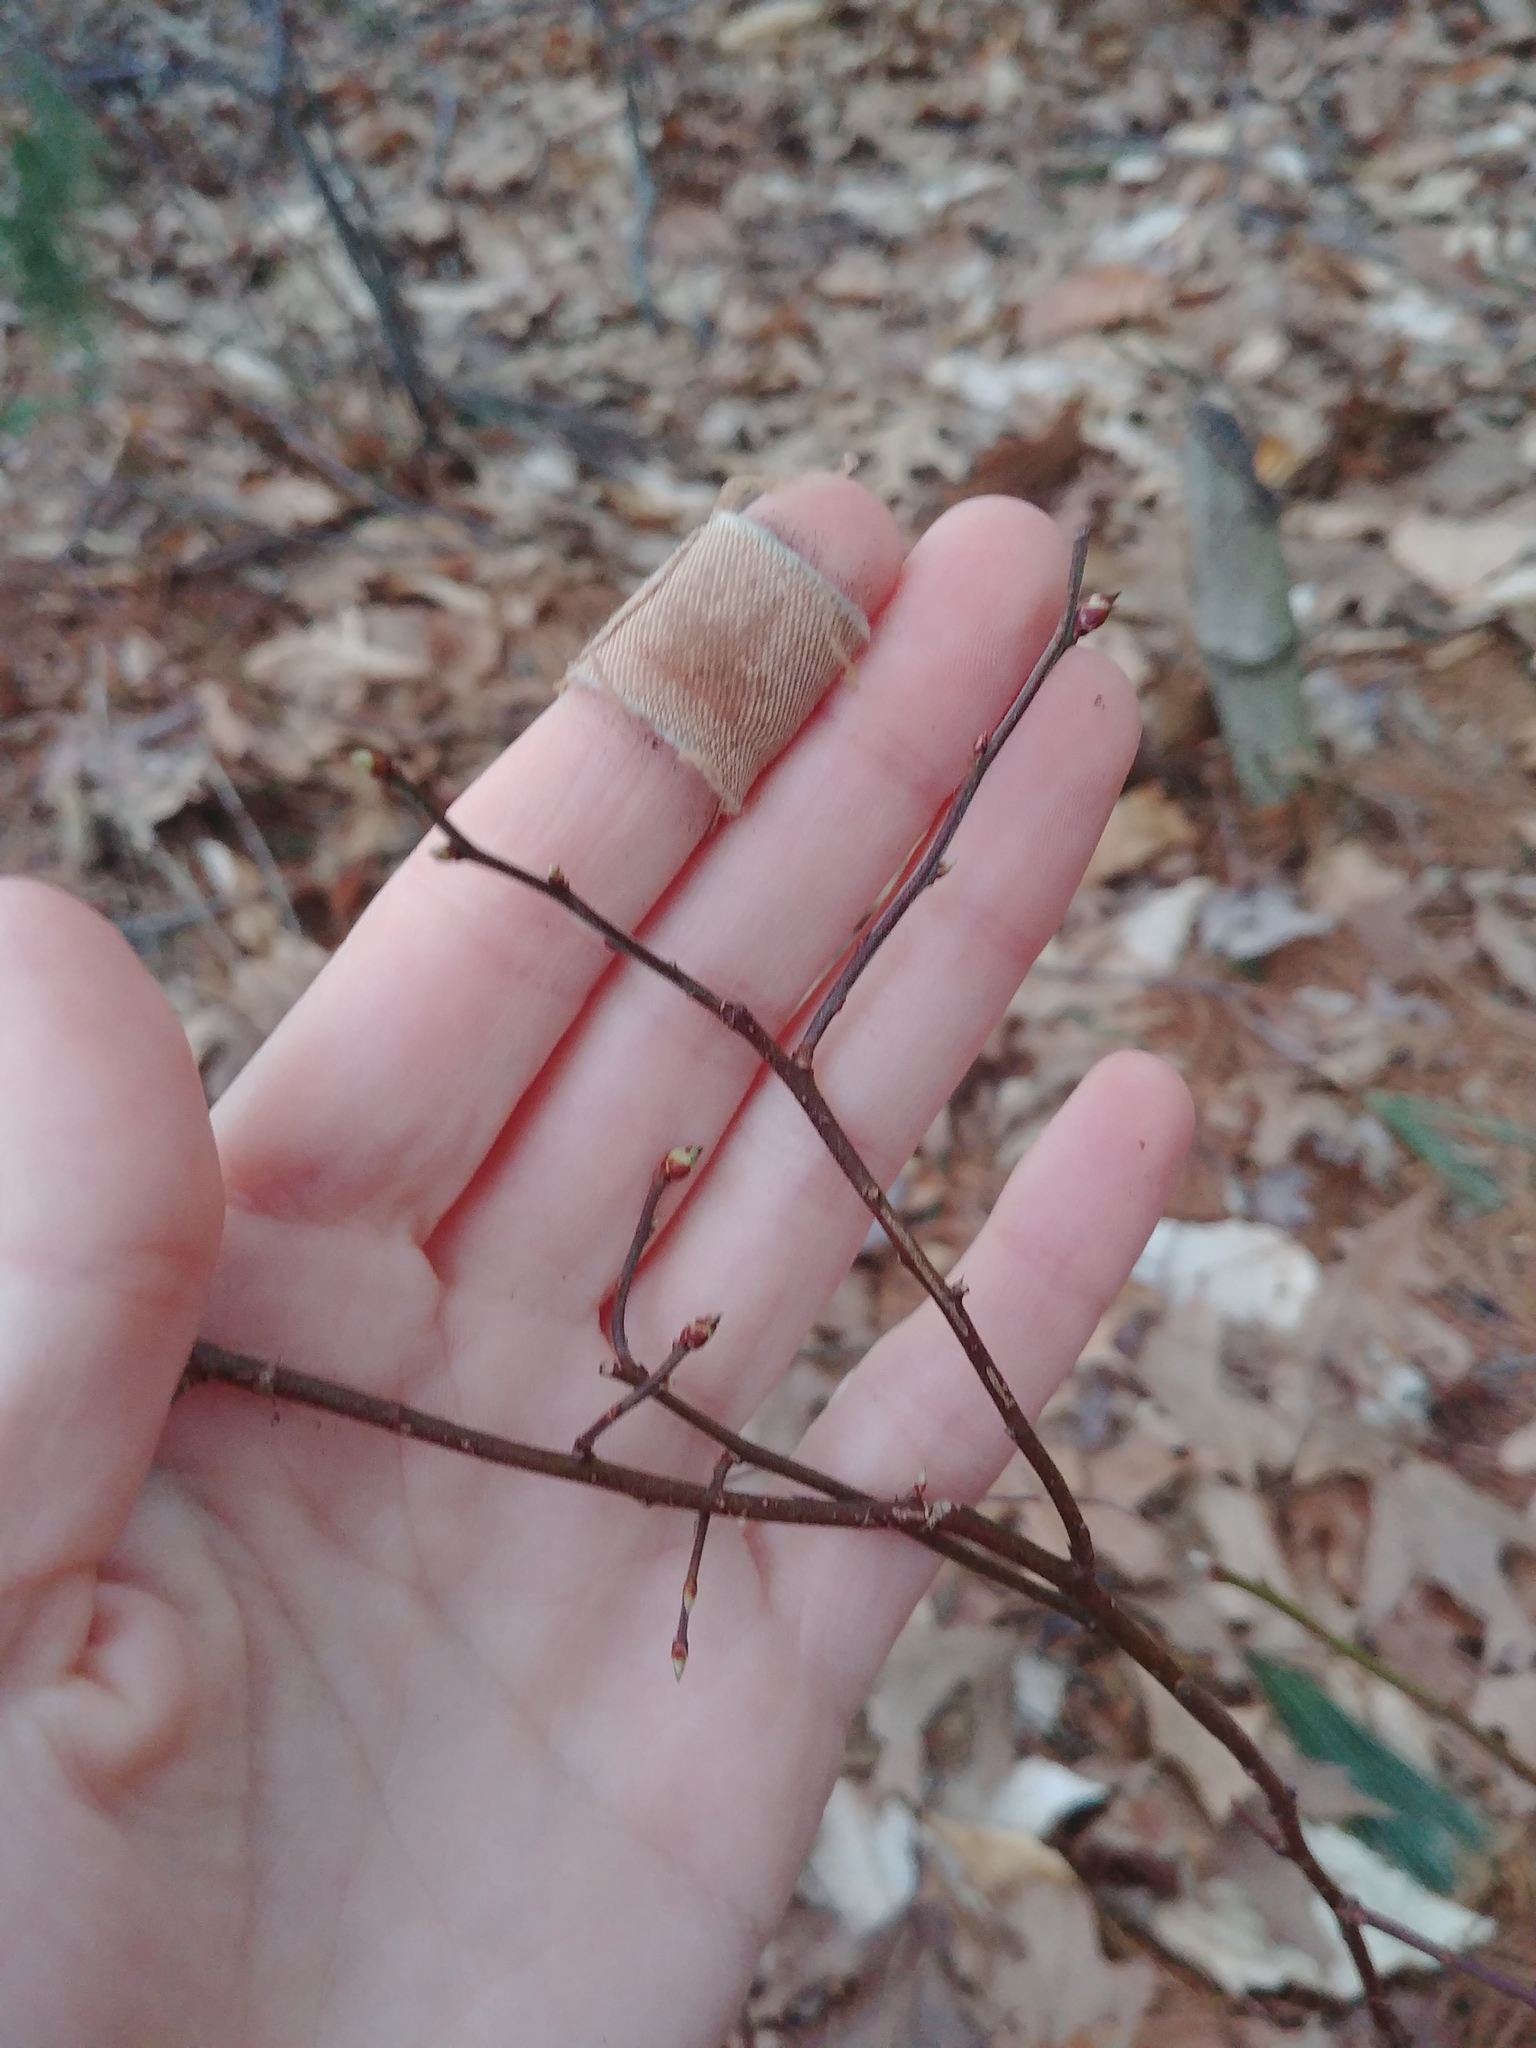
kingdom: Animalia
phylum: Arthropoda
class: Insecta
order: Hymenoptera
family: Pteromalidae
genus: Hemadas
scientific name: Hemadas nubilipennis
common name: Blueberry stem gall wasp
